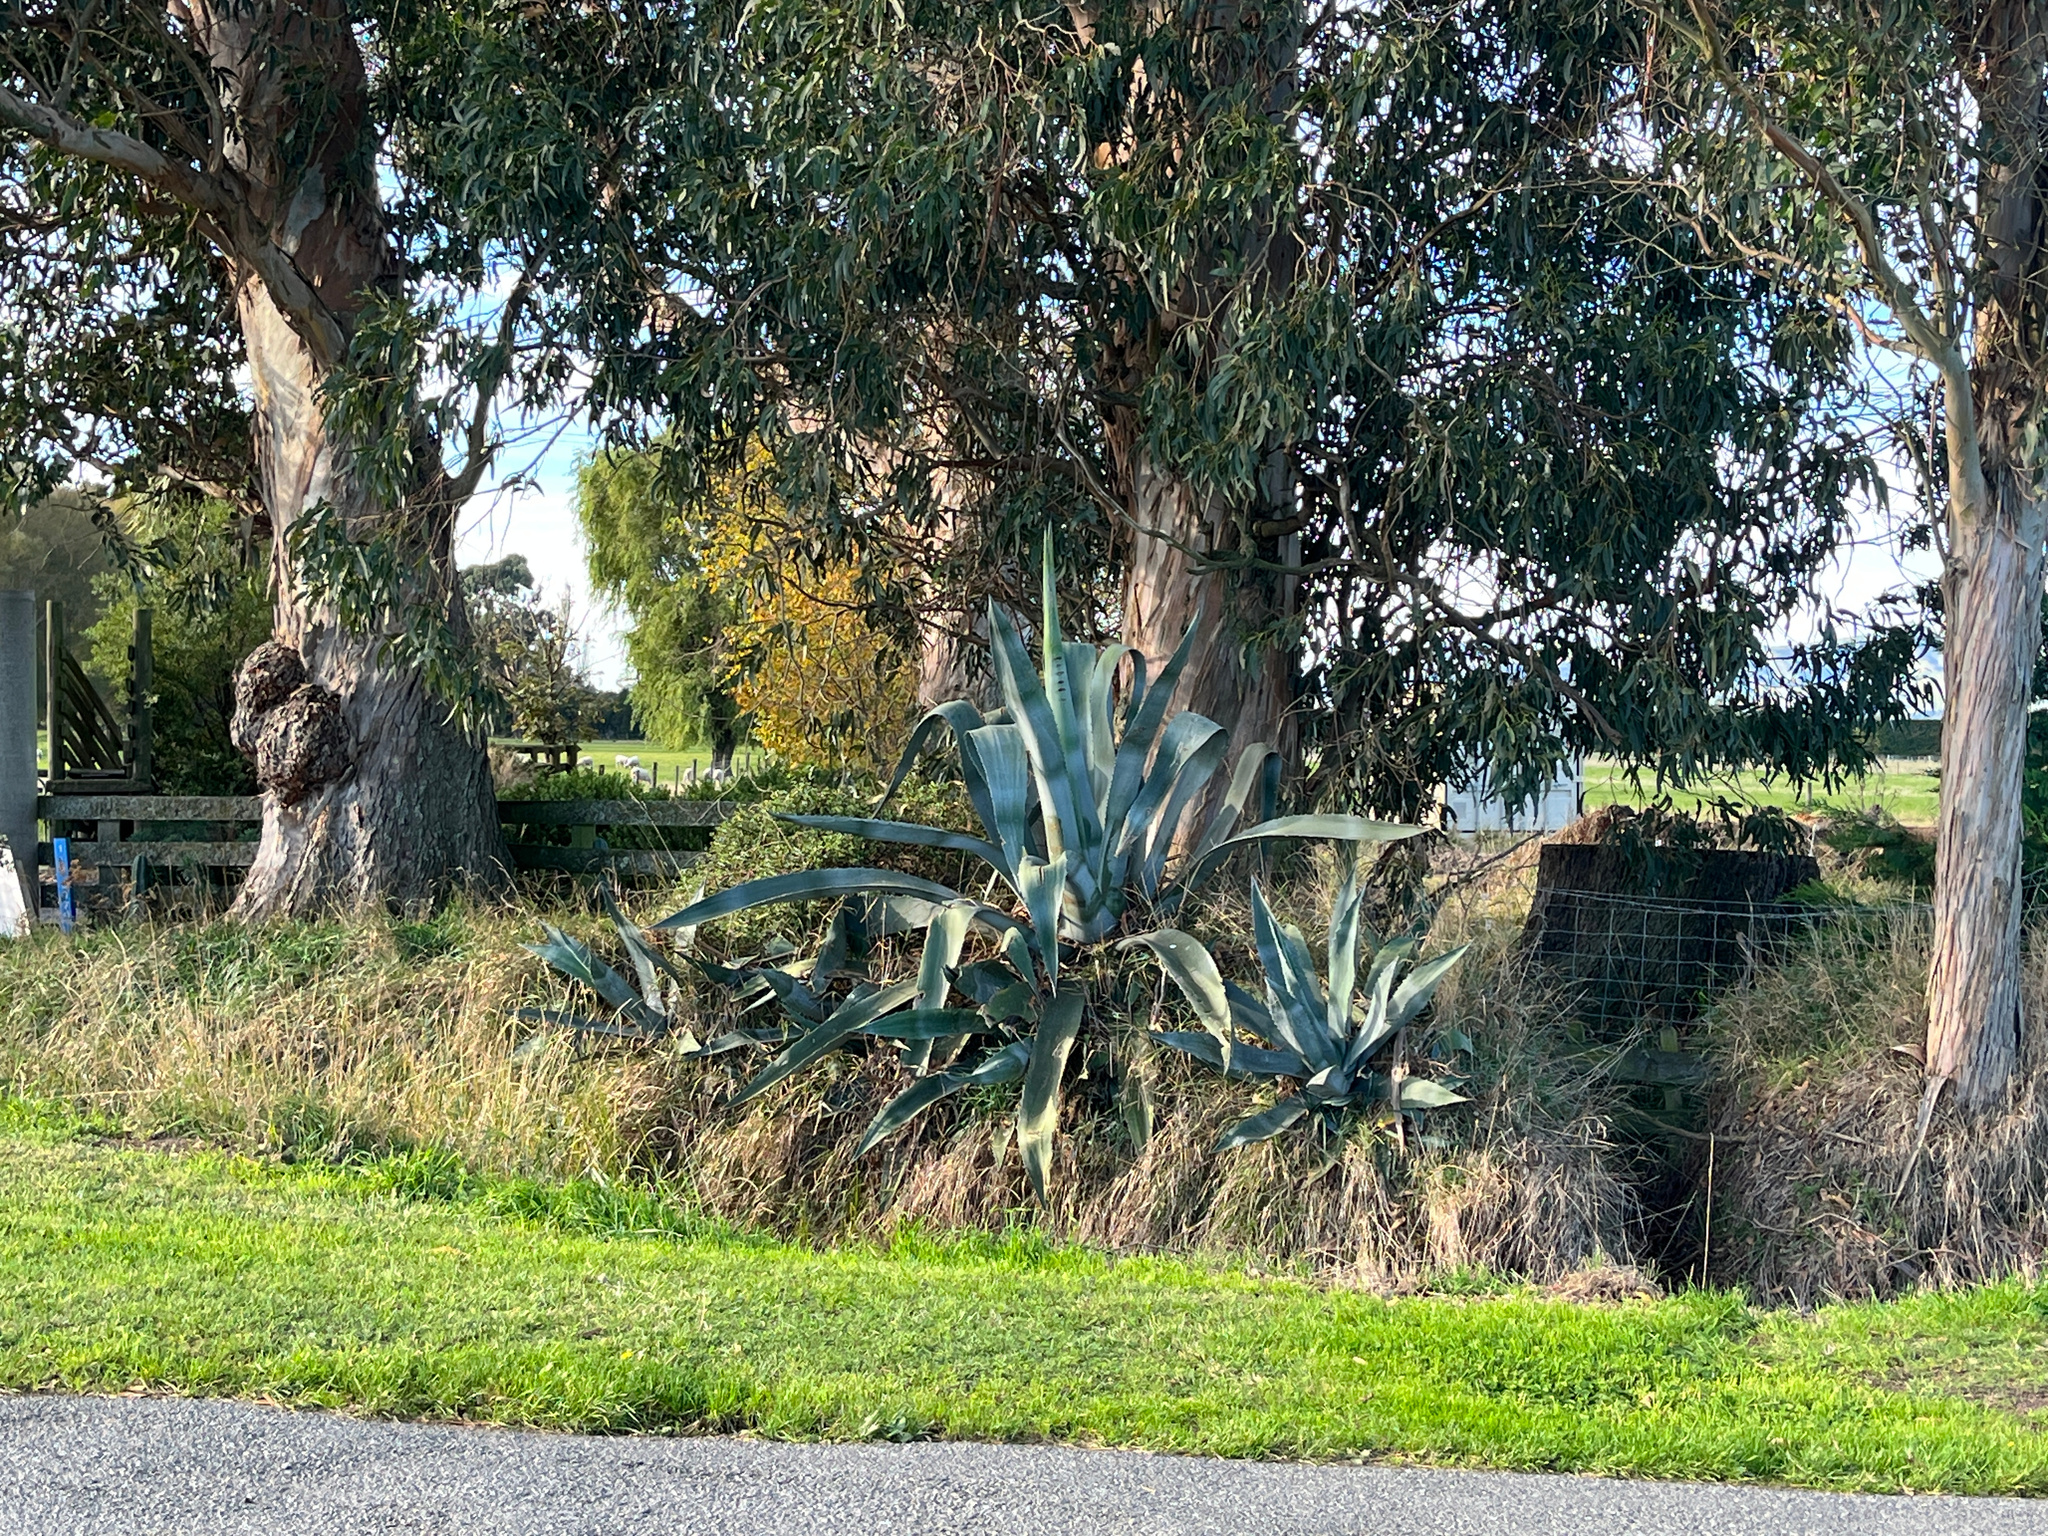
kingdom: Plantae
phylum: Tracheophyta
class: Liliopsida
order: Asparagales
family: Asparagaceae
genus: Agave
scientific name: Agave americana
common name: Centuryplant
